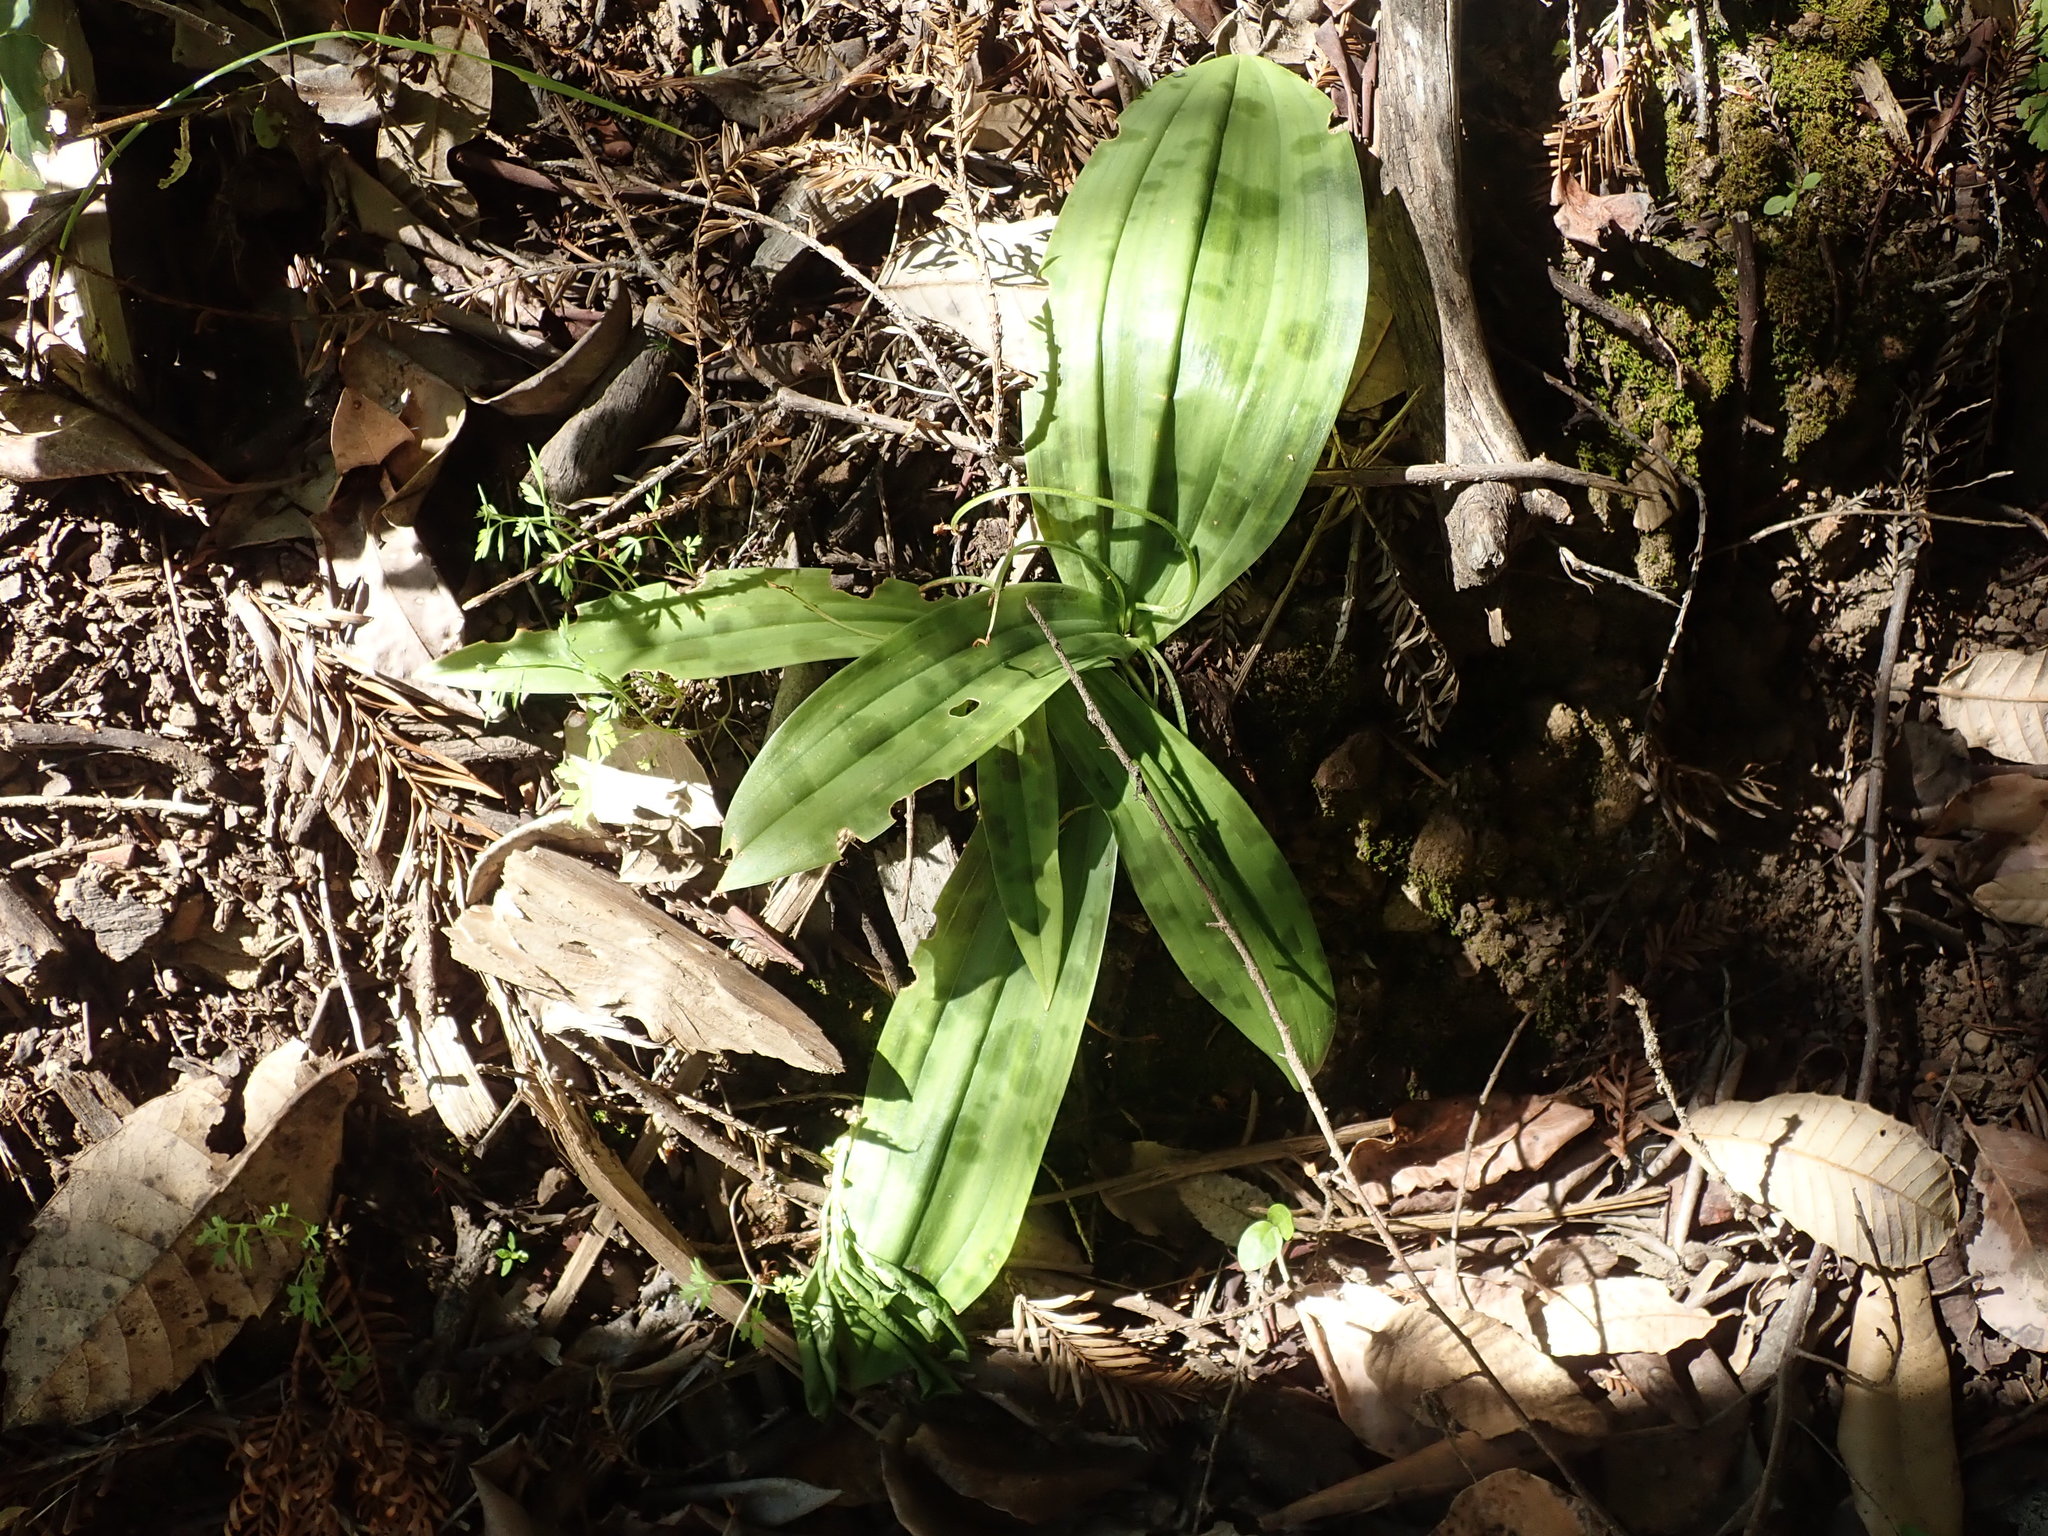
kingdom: Plantae
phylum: Tracheophyta
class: Liliopsida
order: Liliales
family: Liliaceae
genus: Scoliopus
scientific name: Scoliopus bigelovii
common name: Foetid adder's-tongue
